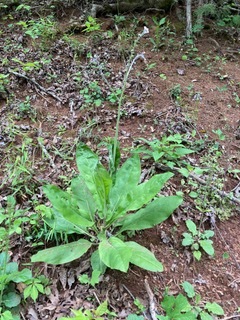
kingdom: Plantae
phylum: Tracheophyta
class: Magnoliopsida
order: Boraginales
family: Boraginaceae
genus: Andersonglossum
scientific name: Andersonglossum virginianum
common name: Wild comfrey
